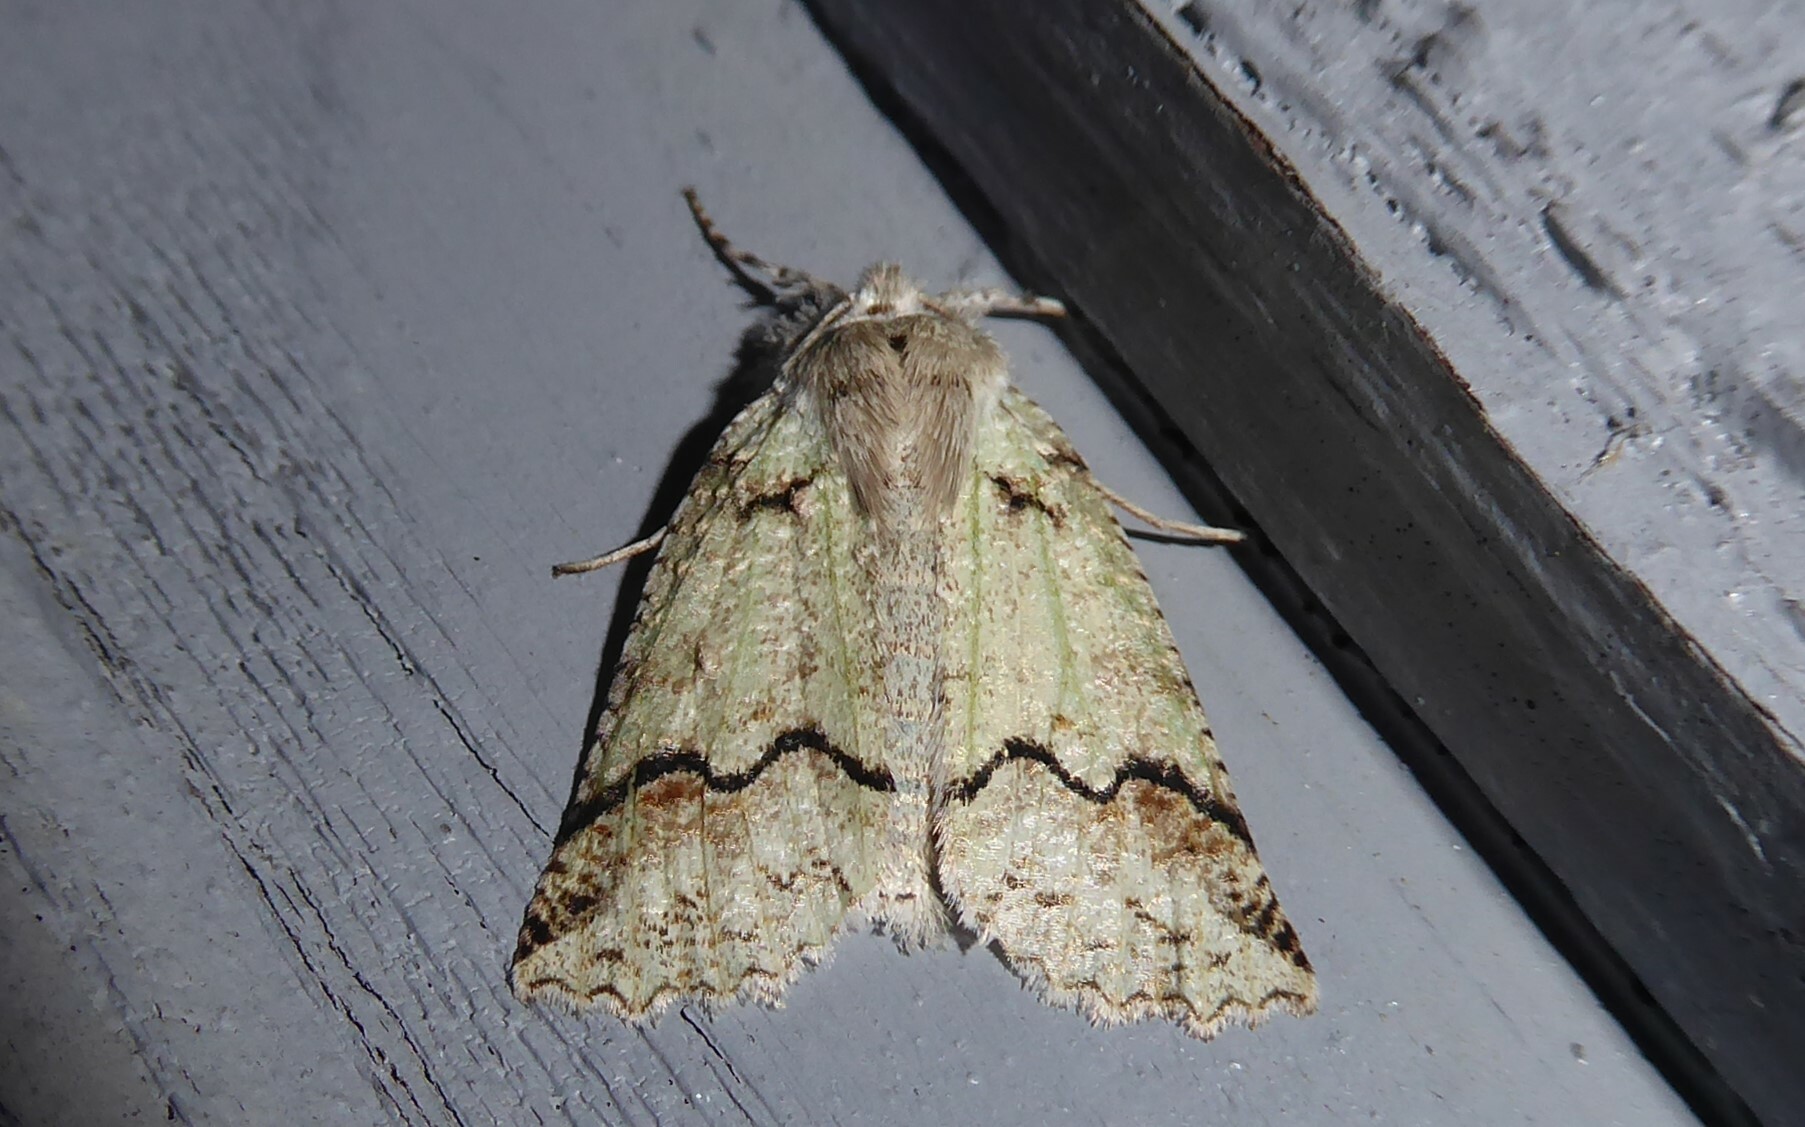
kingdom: Animalia
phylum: Arthropoda
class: Insecta
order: Lepidoptera
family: Geometridae
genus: Declana
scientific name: Declana floccosa
